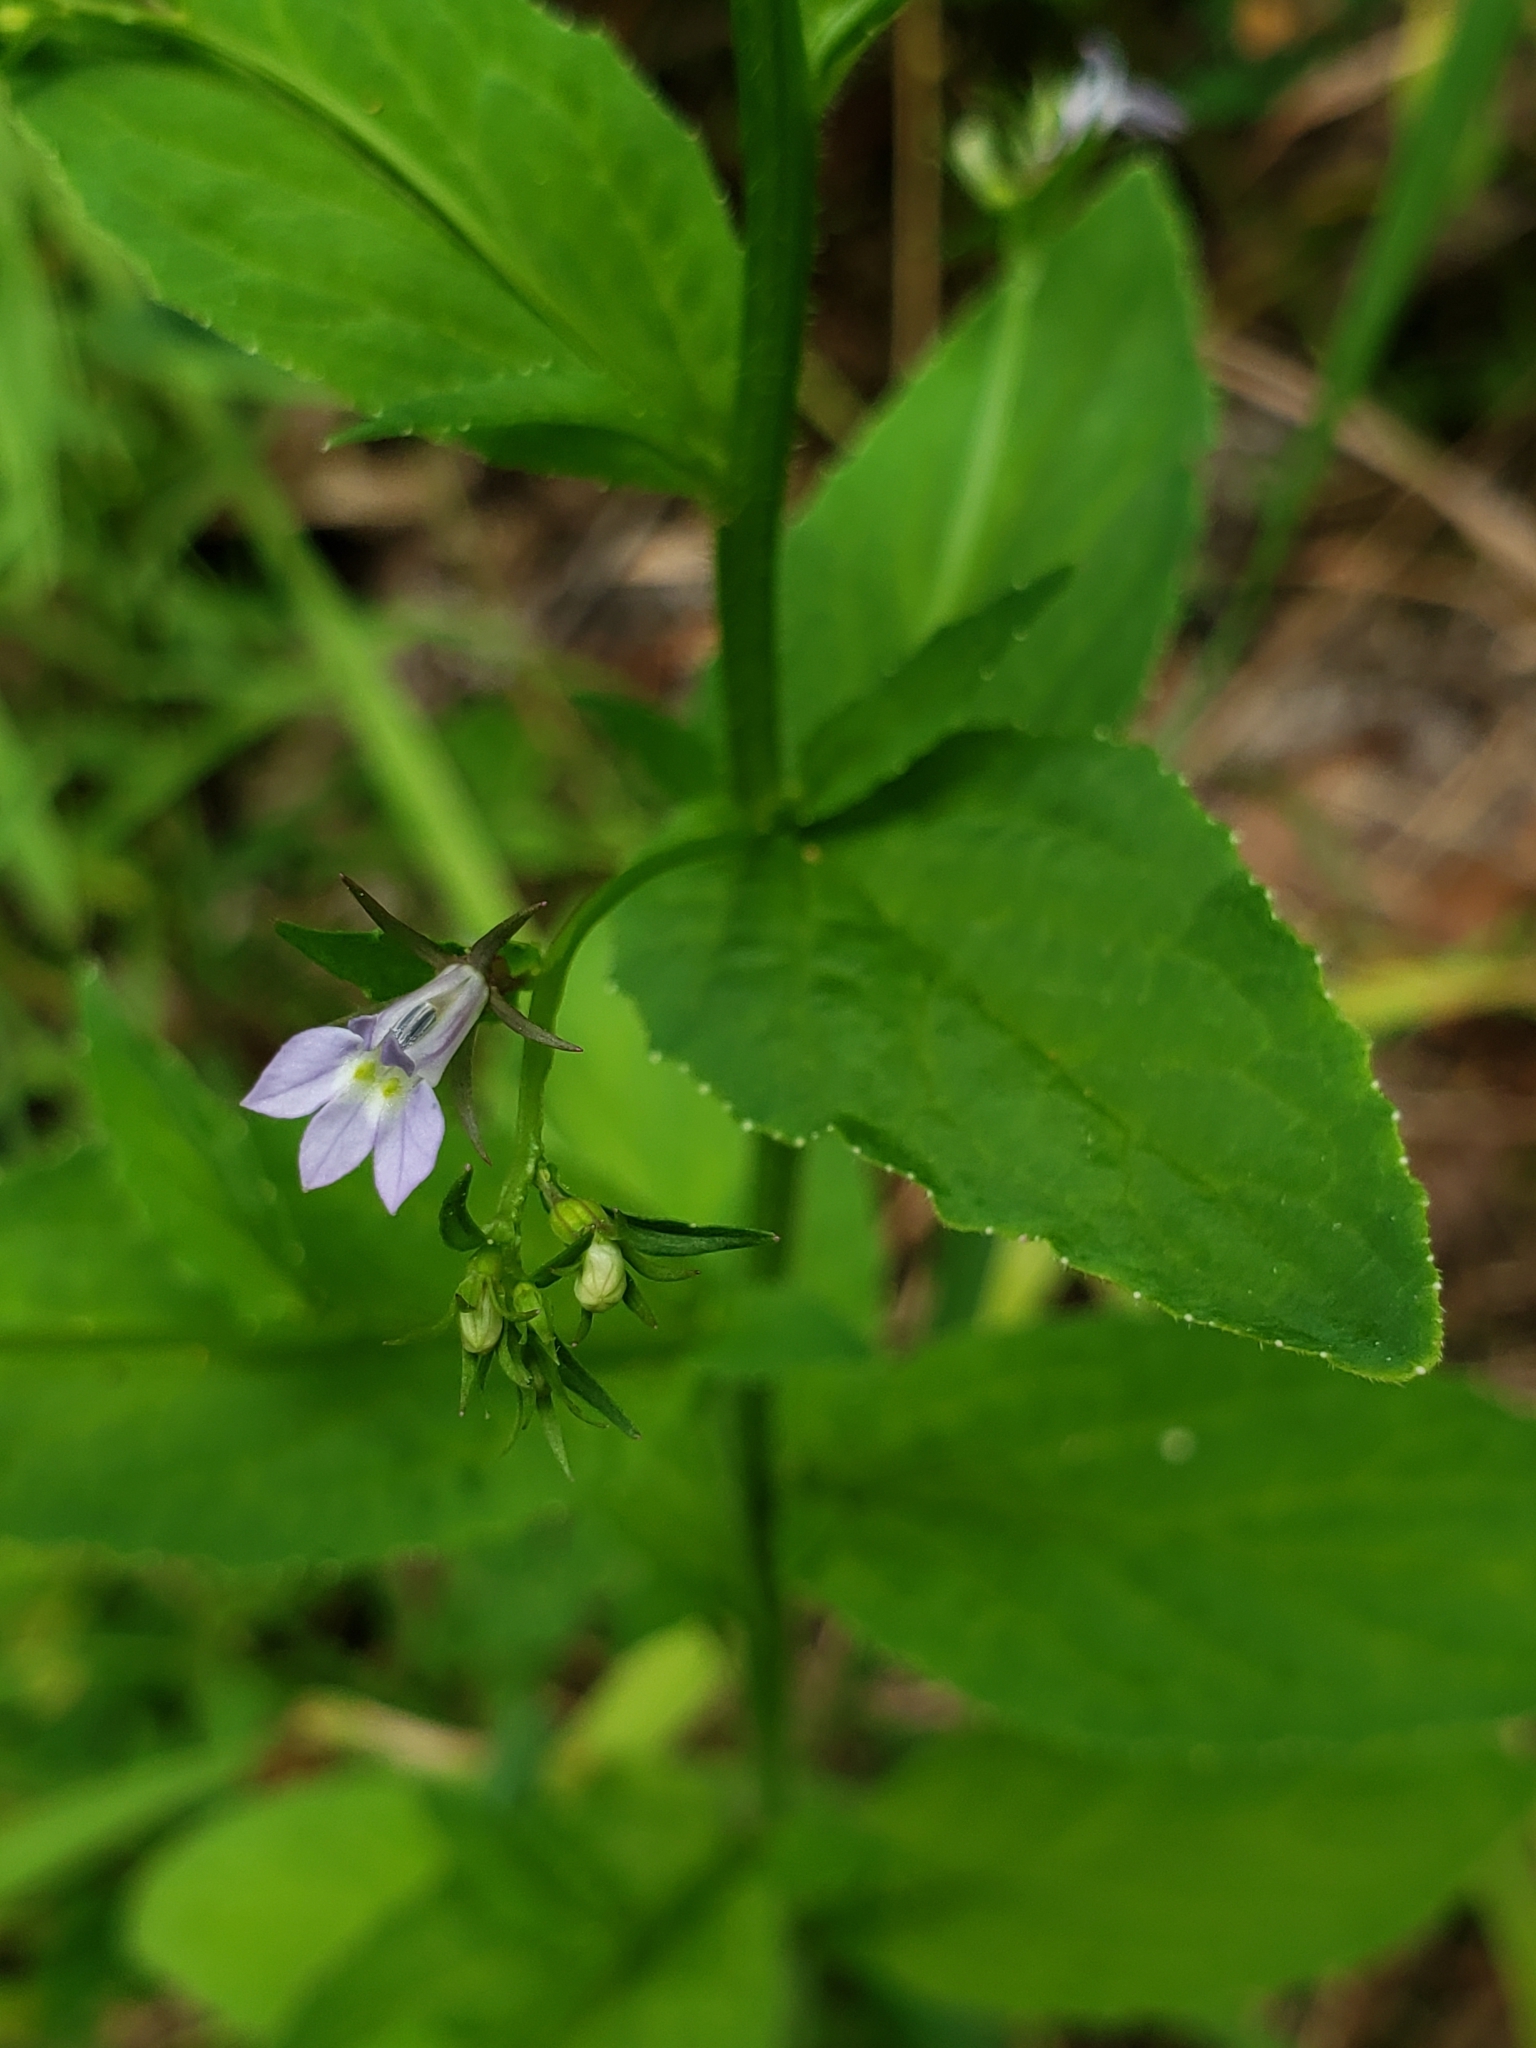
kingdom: Plantae
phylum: Tracheophyta
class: Magnoliopsida
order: Asterales
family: Campanulaceae
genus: Lobelia
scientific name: Lobelia inflata
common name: Indian tobacco
